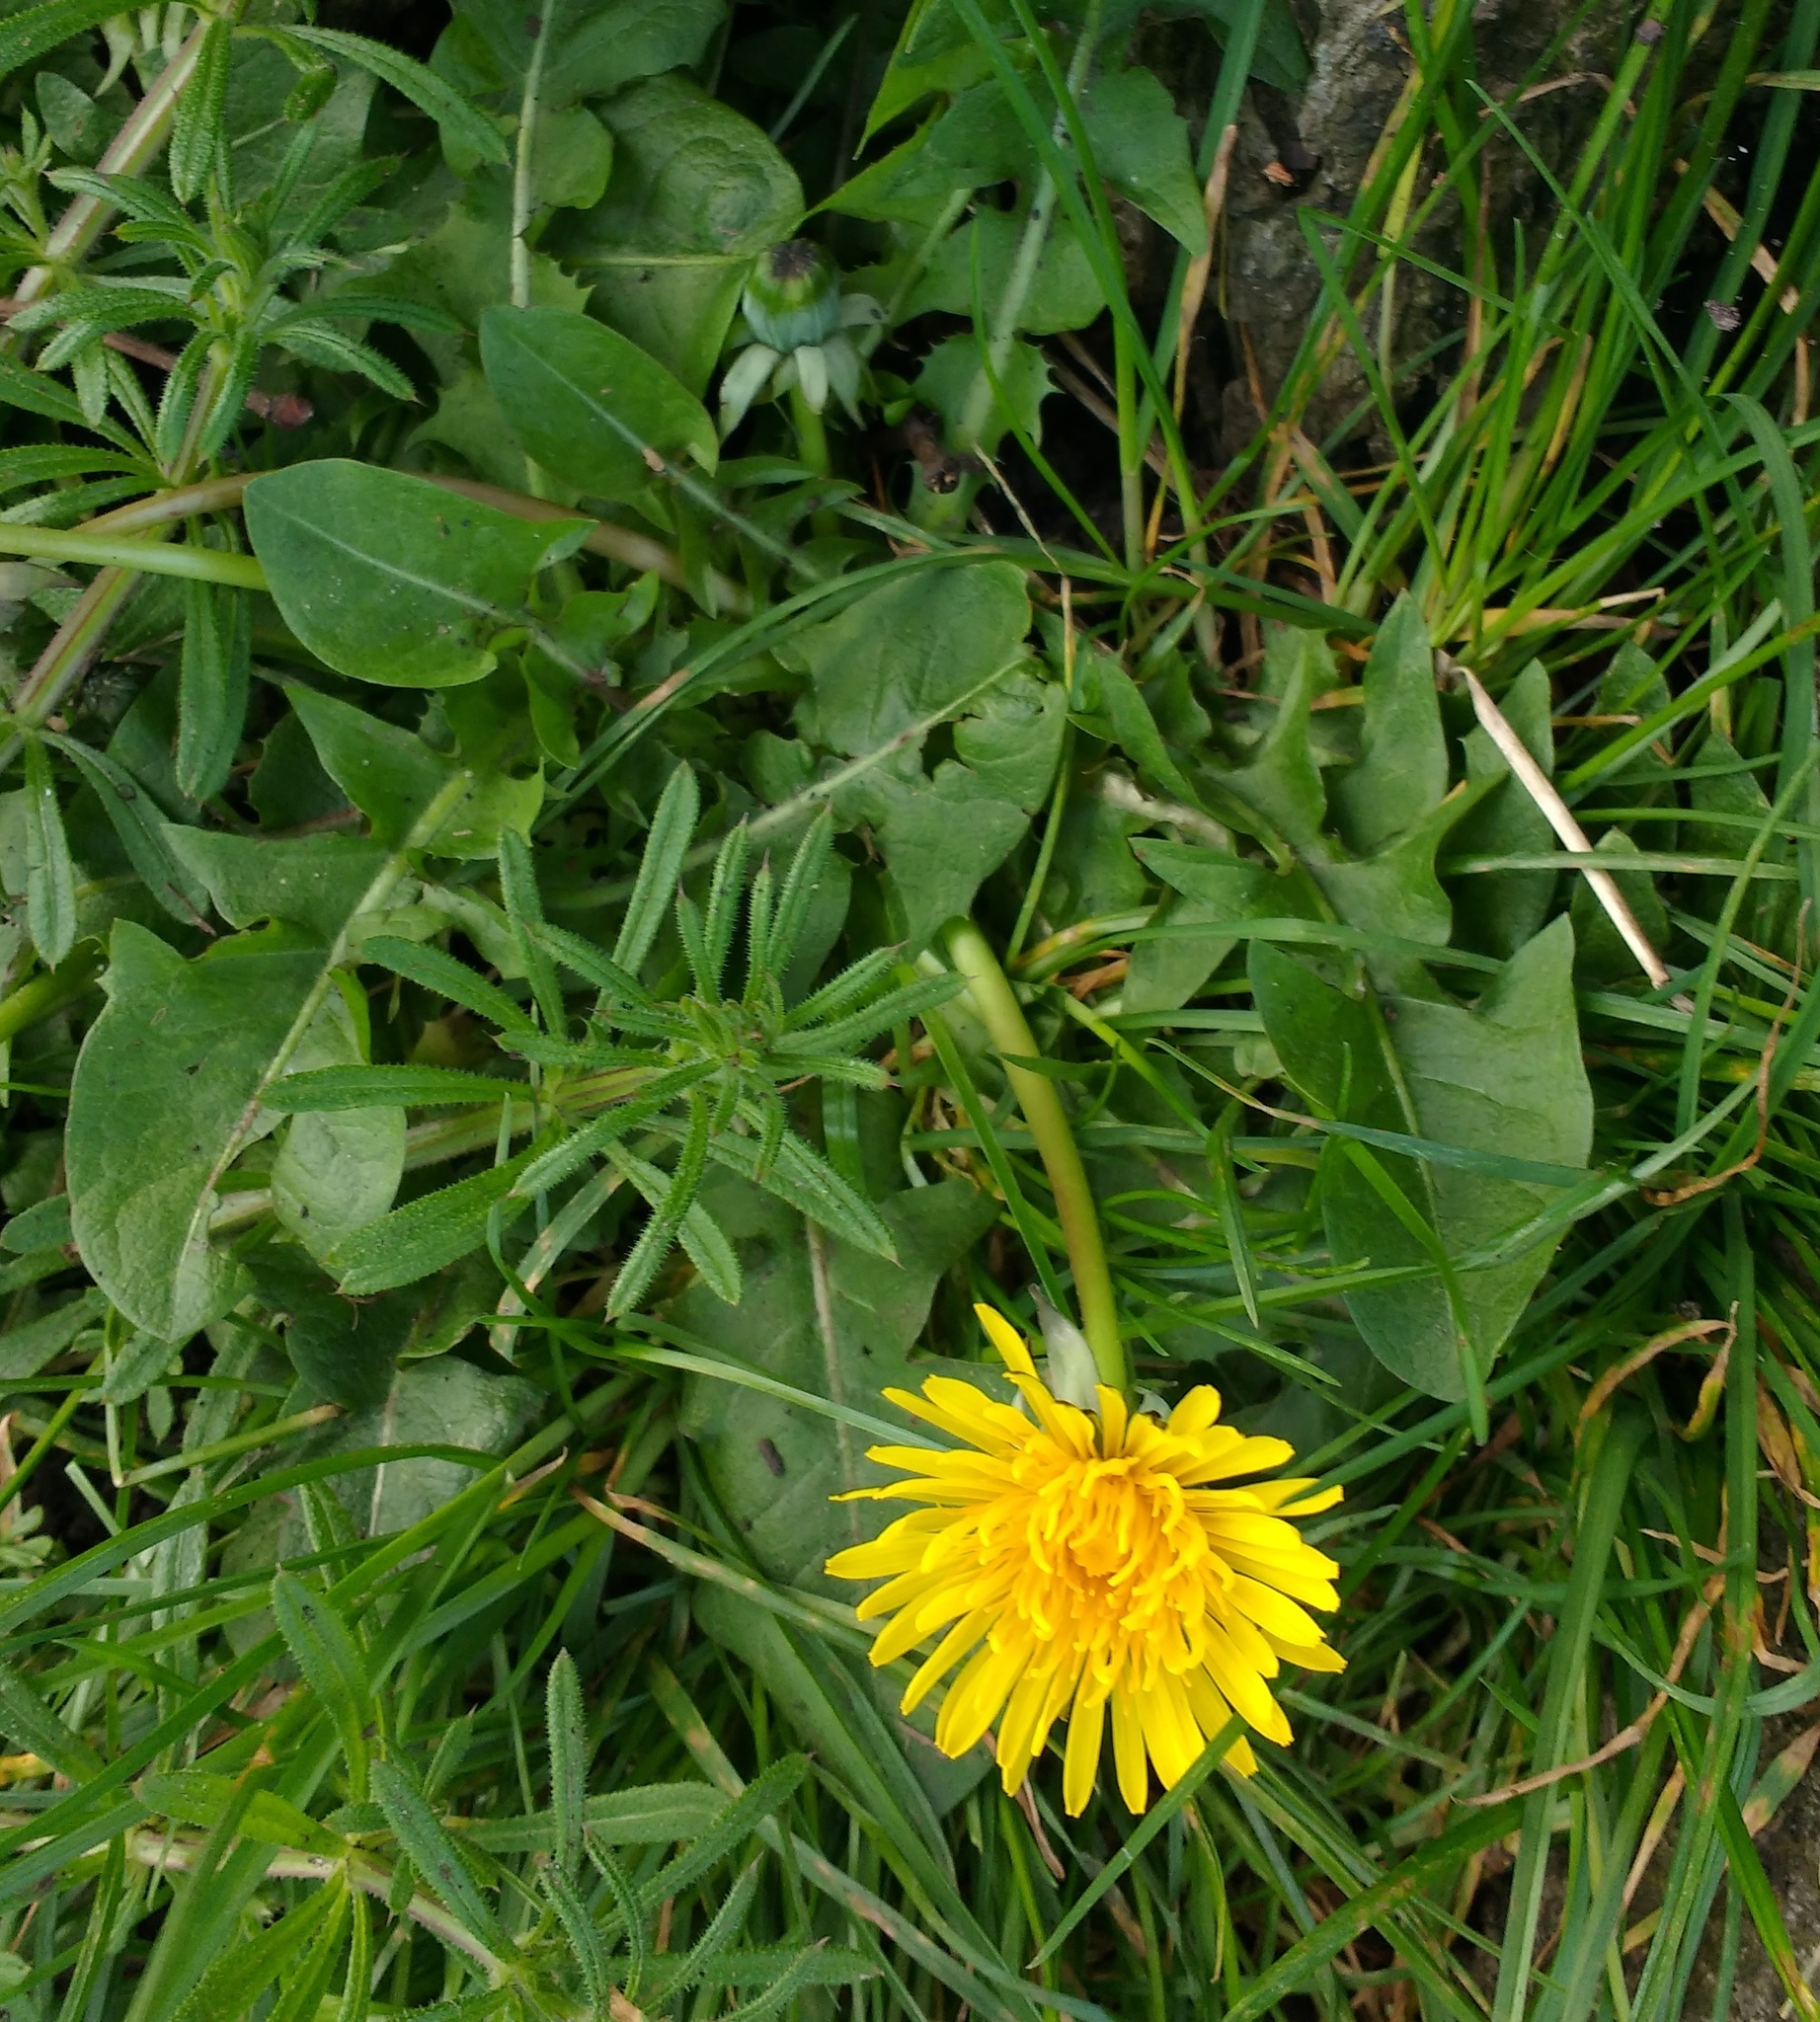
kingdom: Plantae
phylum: Tracheophyta
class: Magnoliopsida
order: Asterales
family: Asteraceae
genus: Taraxacum
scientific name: Taraxacum officinale
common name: Common dandelion
